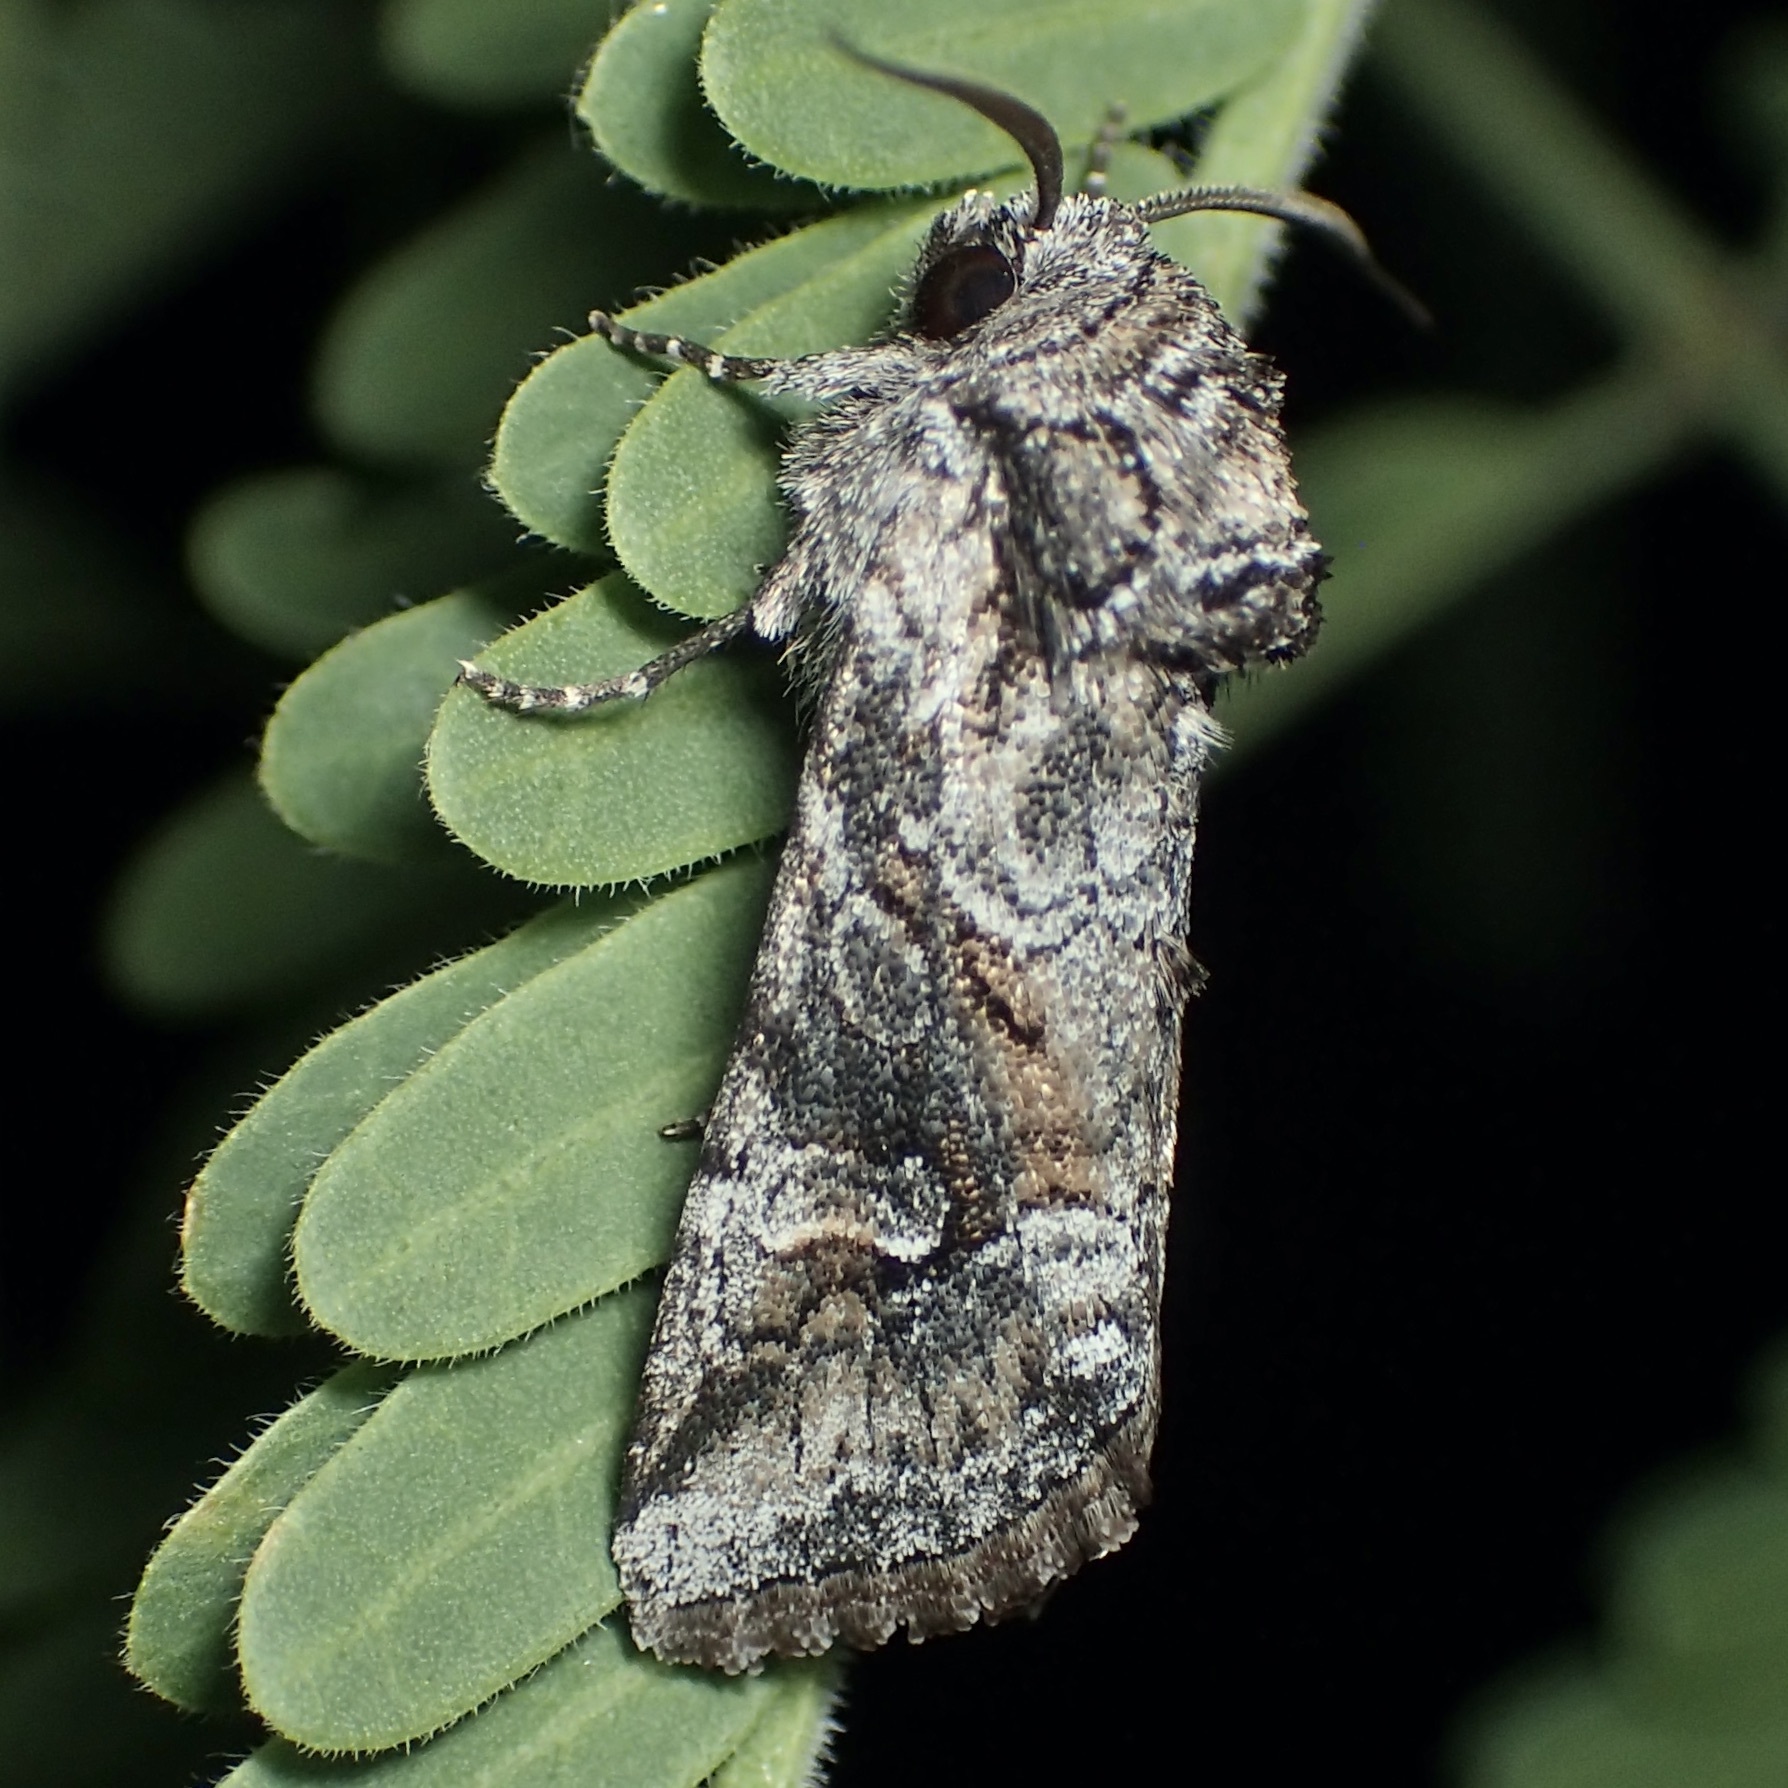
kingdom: Animalia
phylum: Arthropoda
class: Insecta
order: Lepidoptera
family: Noctuidae
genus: Lacinipolia
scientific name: Lacinipolia rodora
